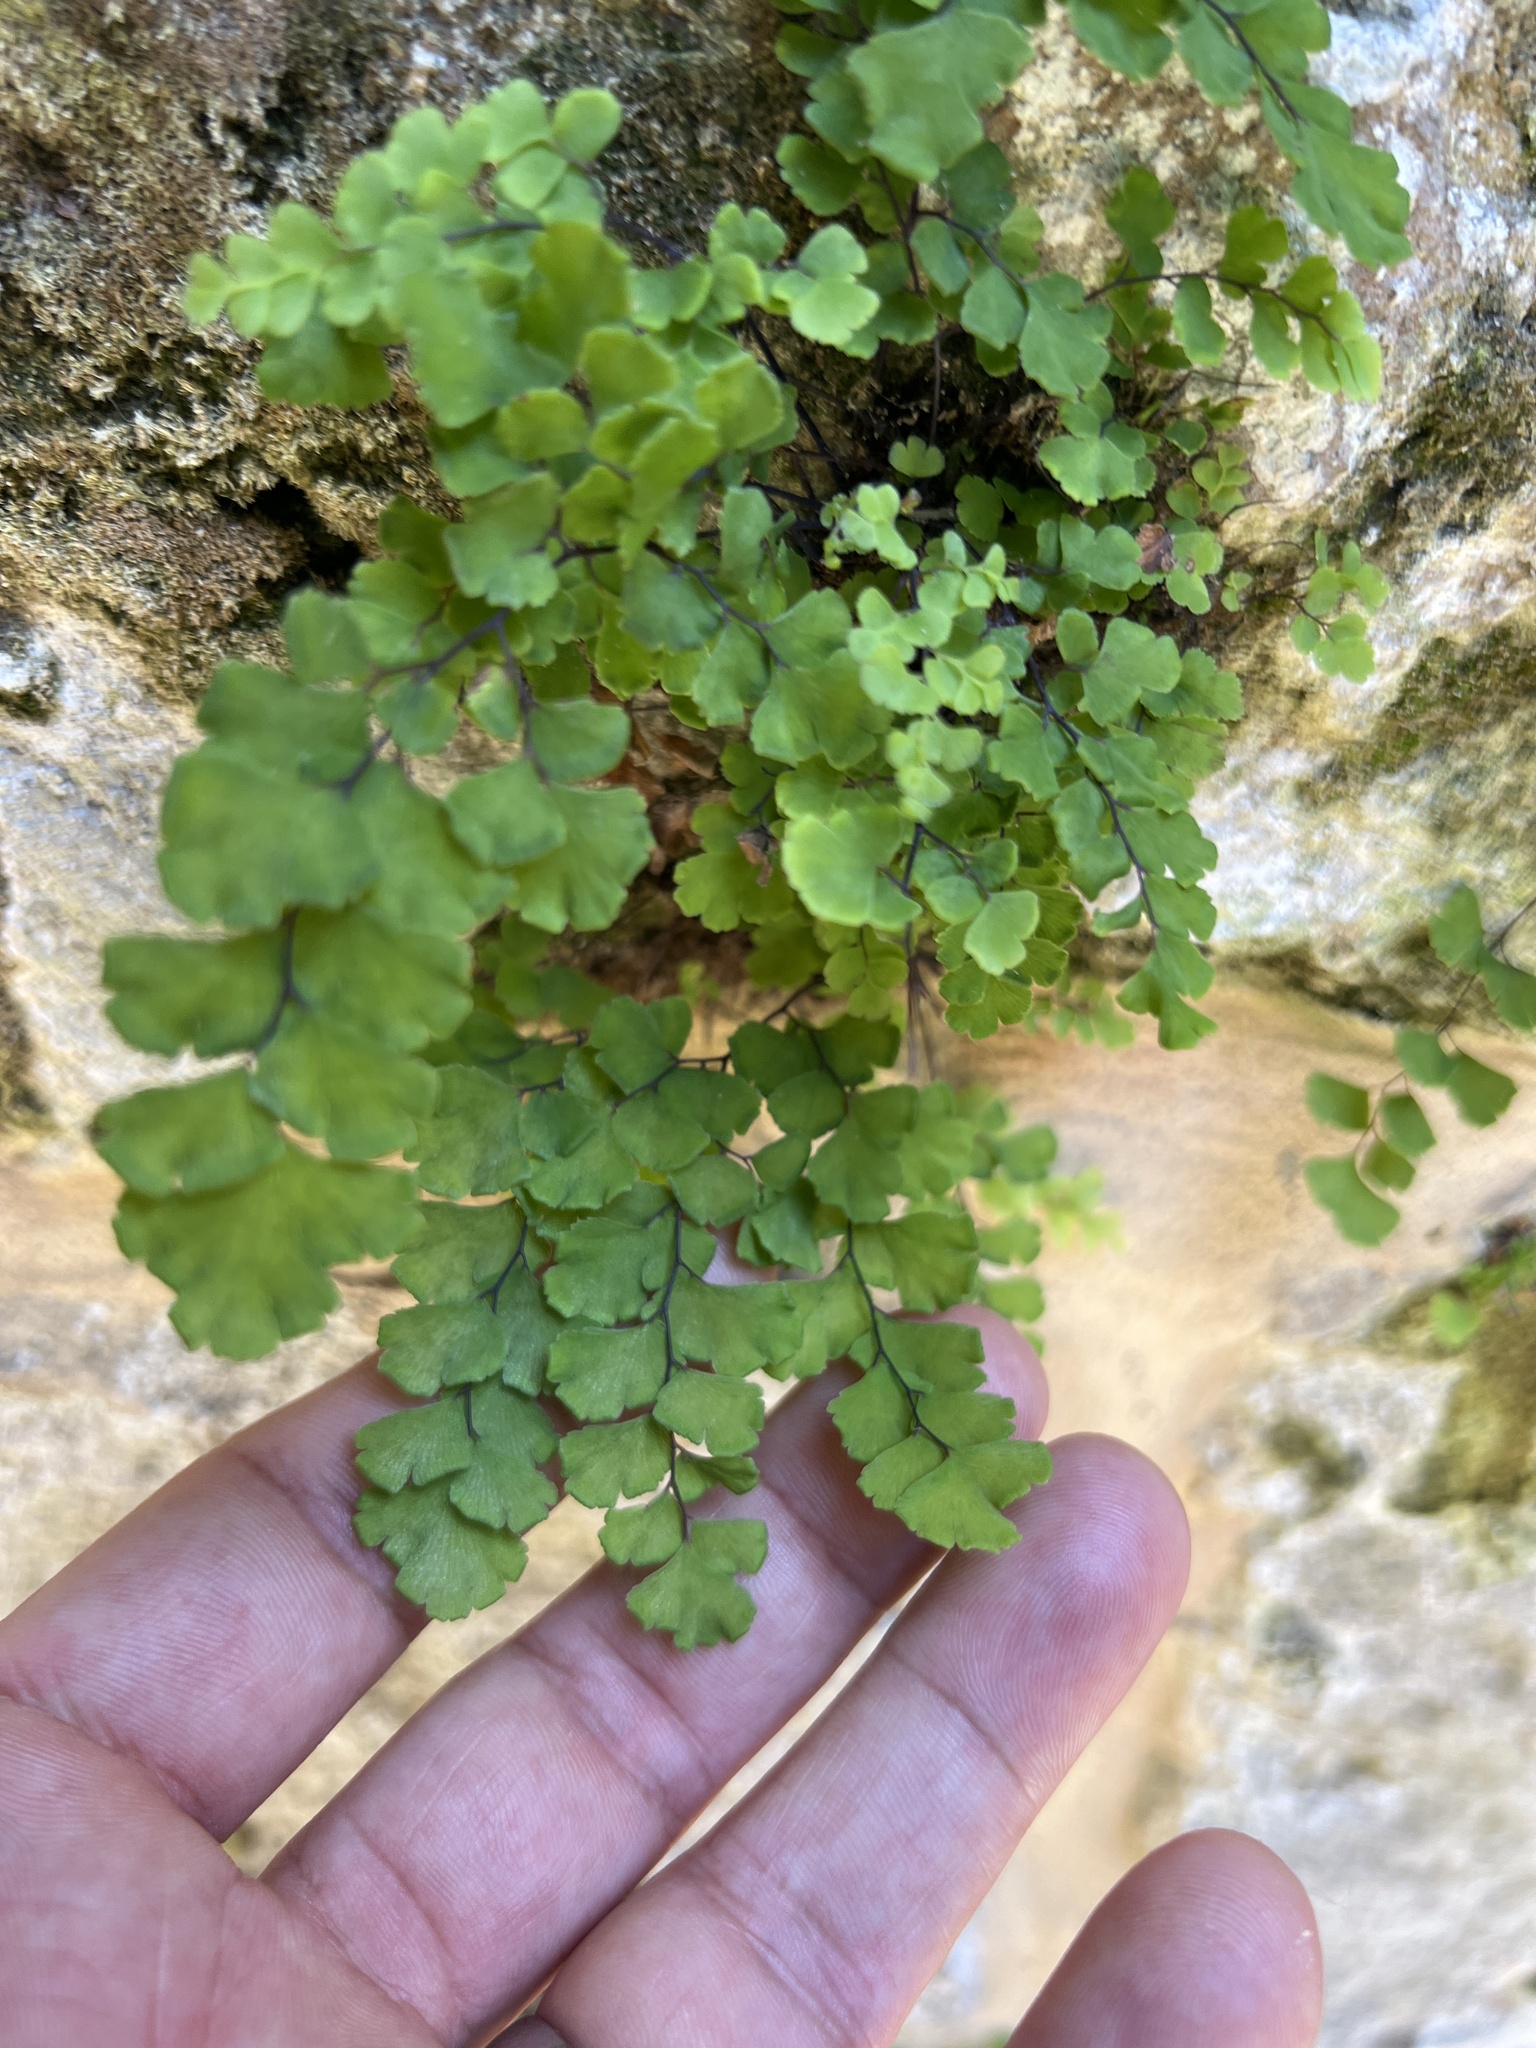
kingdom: Plantae
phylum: Tracheophyta
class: Polypodiopsida
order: Polypodiales
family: Pteridaceae
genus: Adiantum
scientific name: Adiantum capillus-veneris
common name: Maidenhair fern
